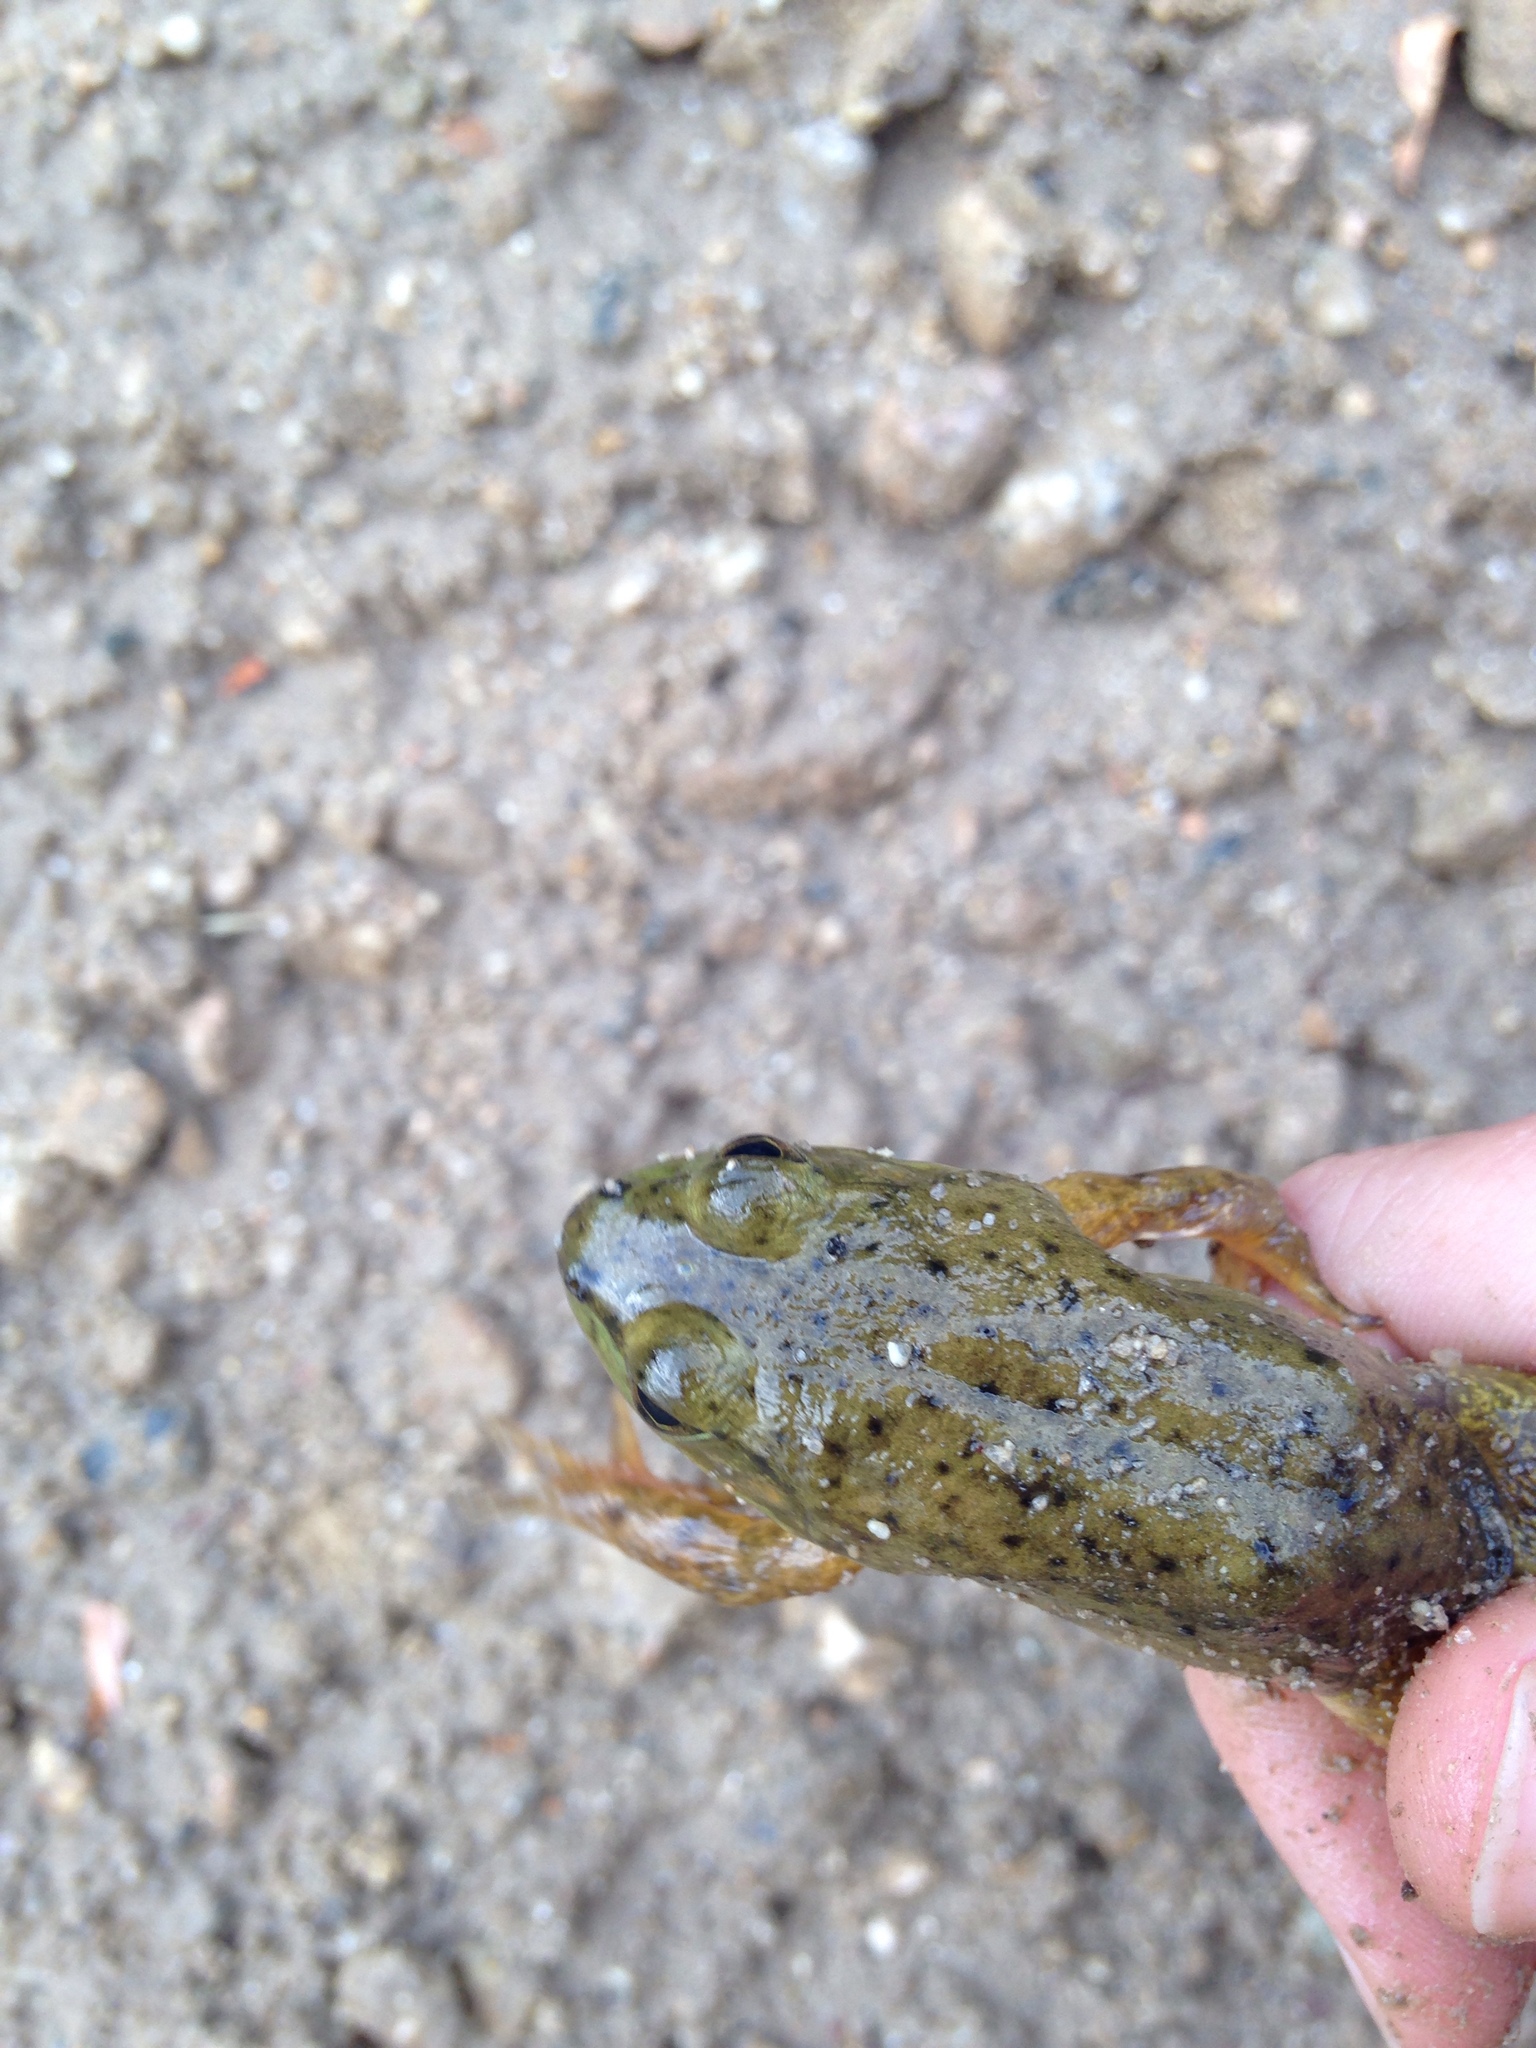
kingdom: Animalia
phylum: Chordata
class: Amphibia
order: Anura
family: Ranidae
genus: Lithobates
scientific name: Lithobates catesbeianus
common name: American bullfrog
